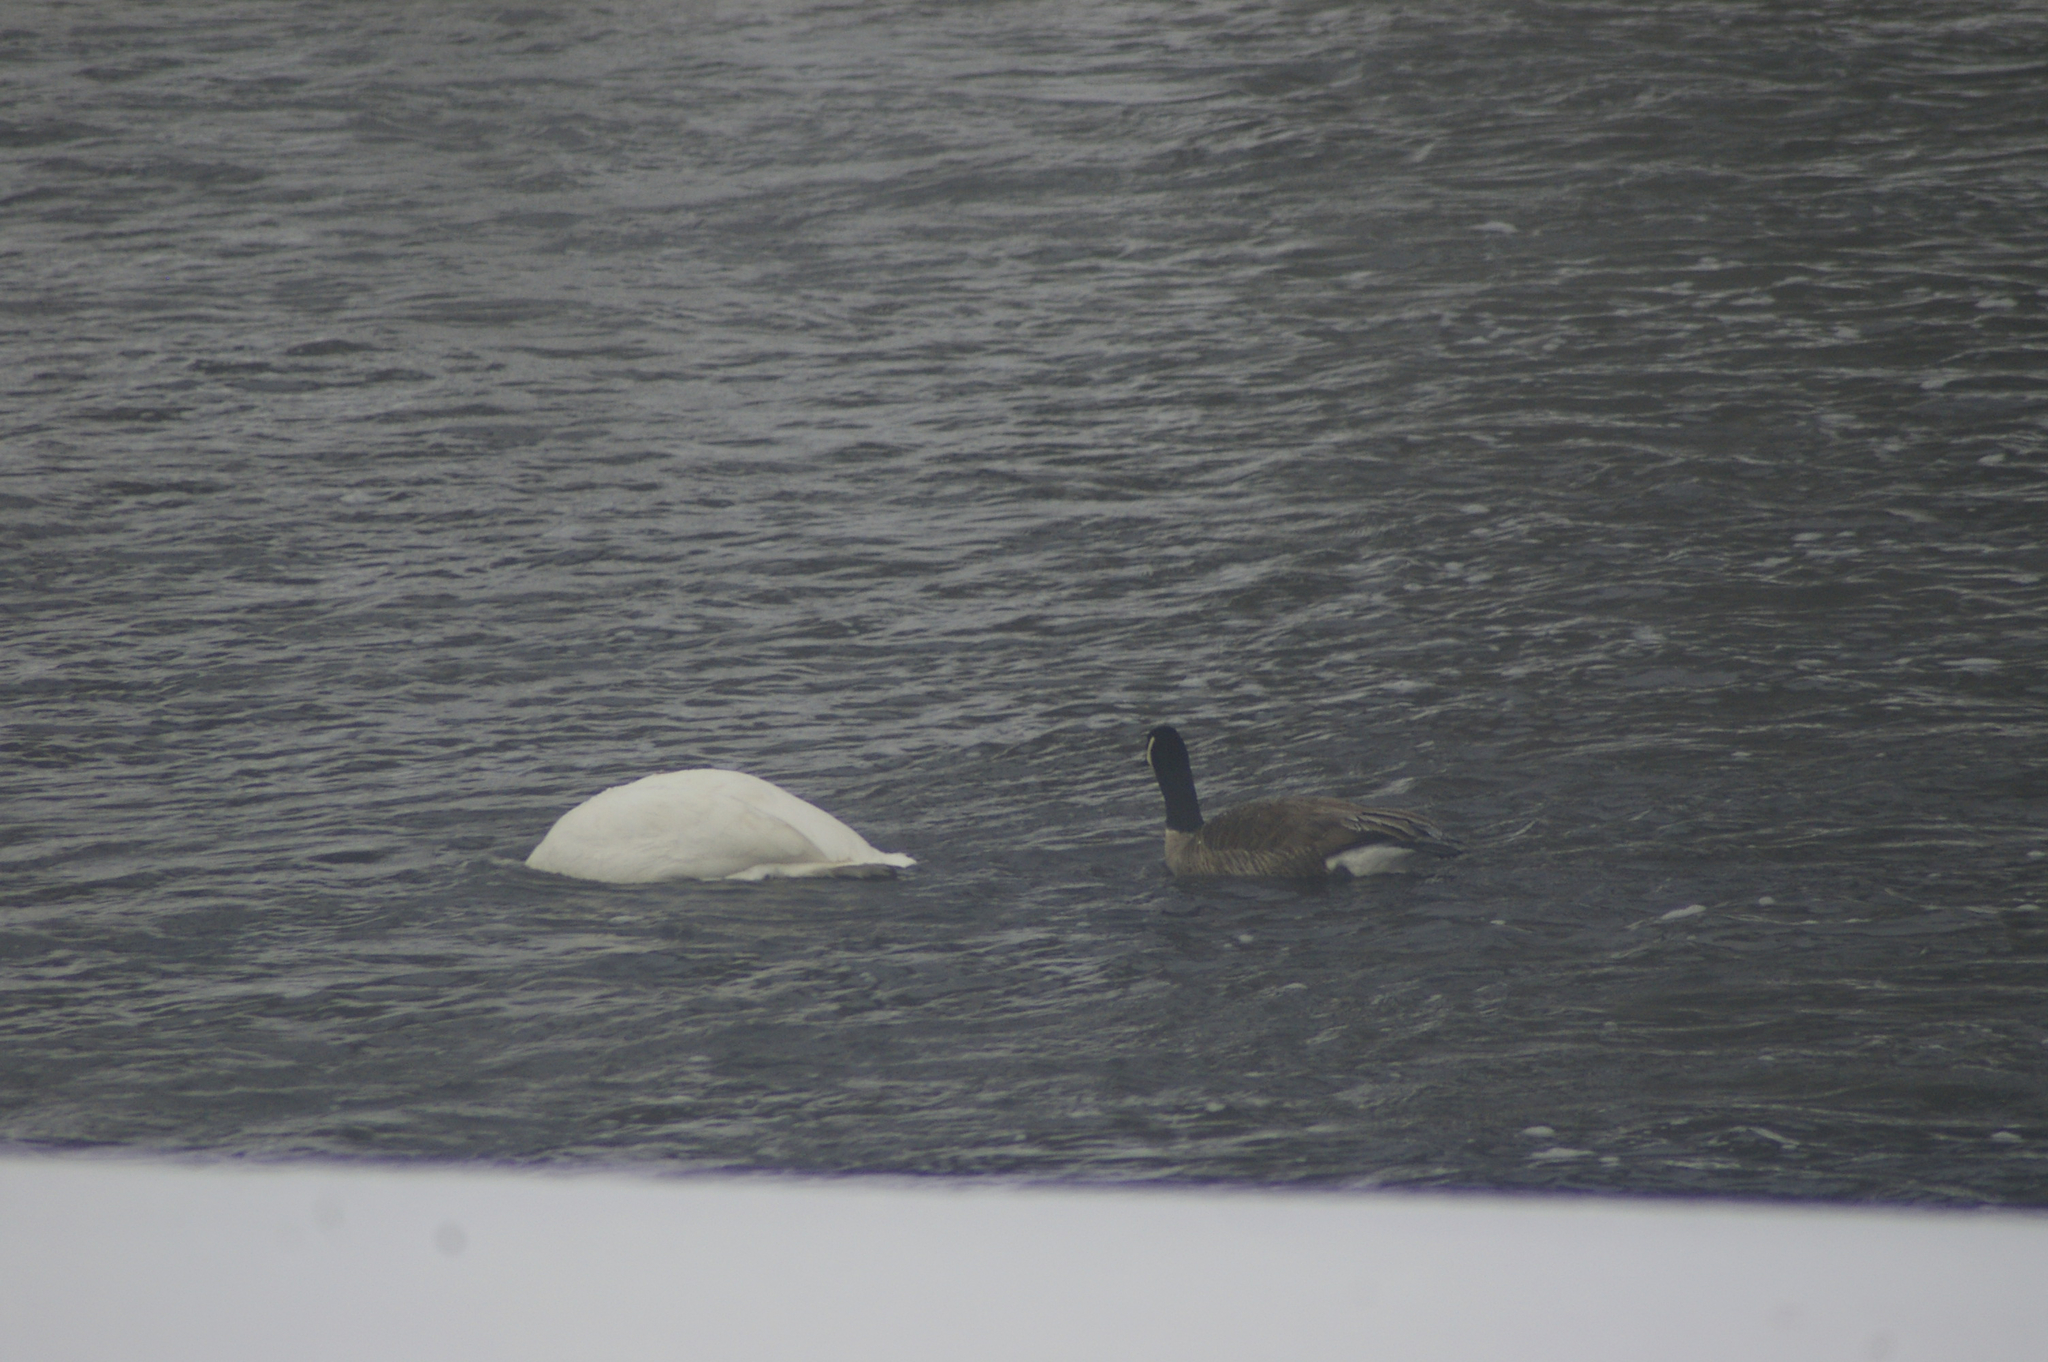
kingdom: Animalia
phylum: Chordata
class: Aves
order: Anseriformes
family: Anatidae
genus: Cygnus
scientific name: Cygnus buccinator
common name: Trumpeter swan
